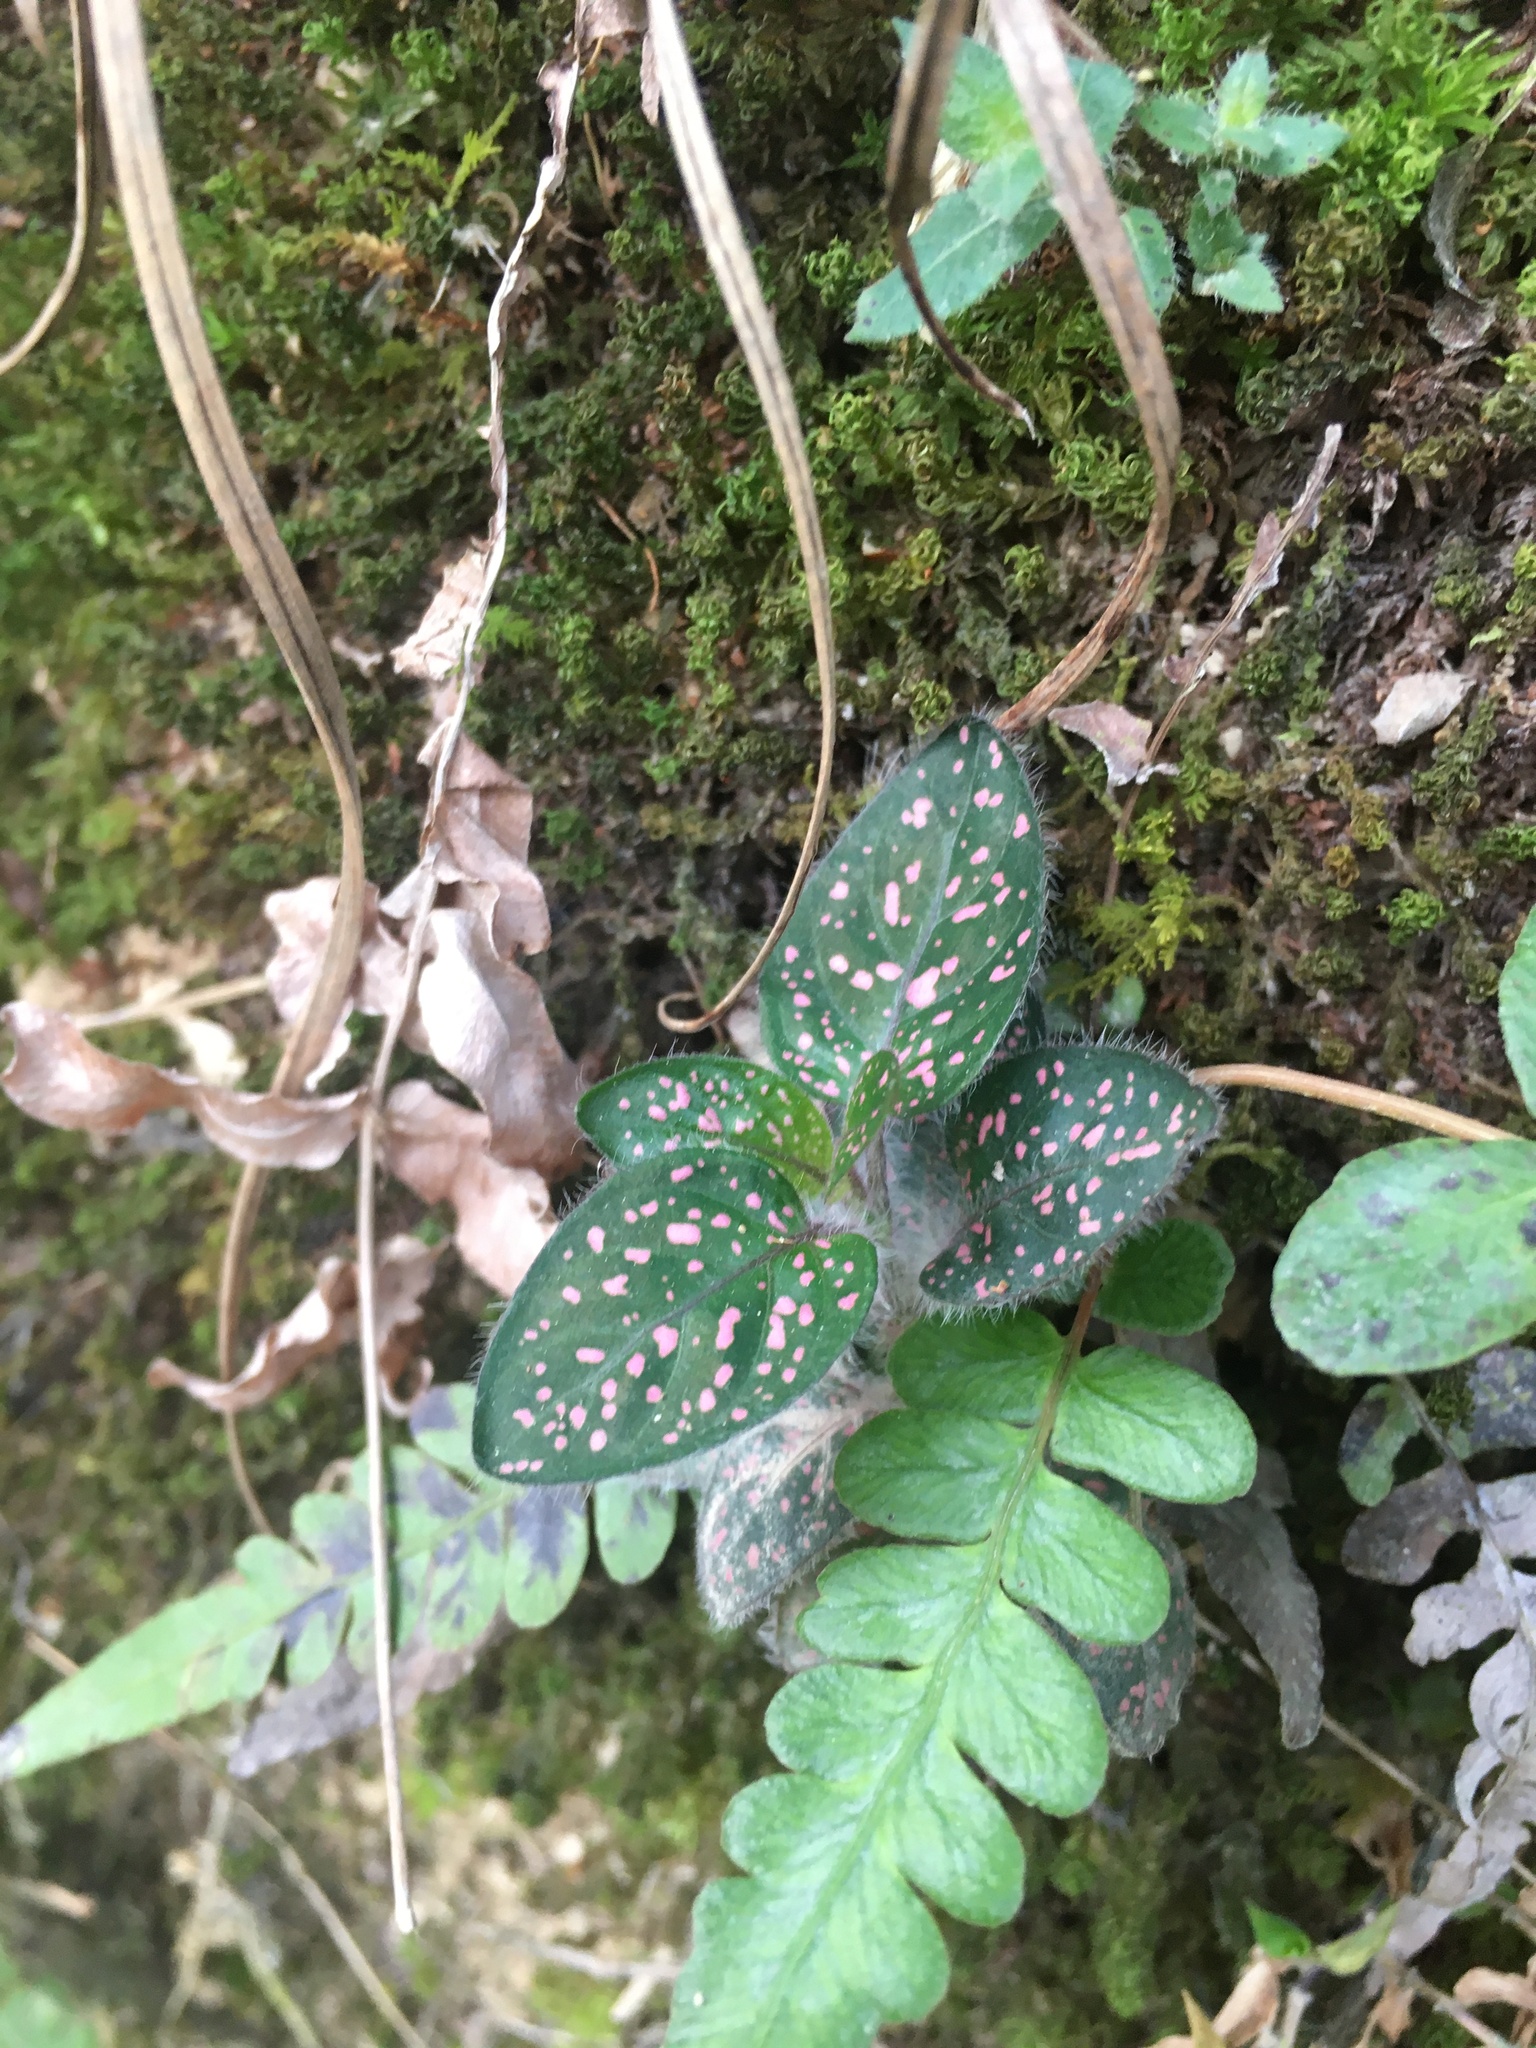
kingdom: Plantae
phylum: Tracheophyta
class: Magnoliopsida
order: Lamiales
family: Acanthaceae
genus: Hypoestes
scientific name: Hypoestes phyllostachya
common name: Polkadot-plant
